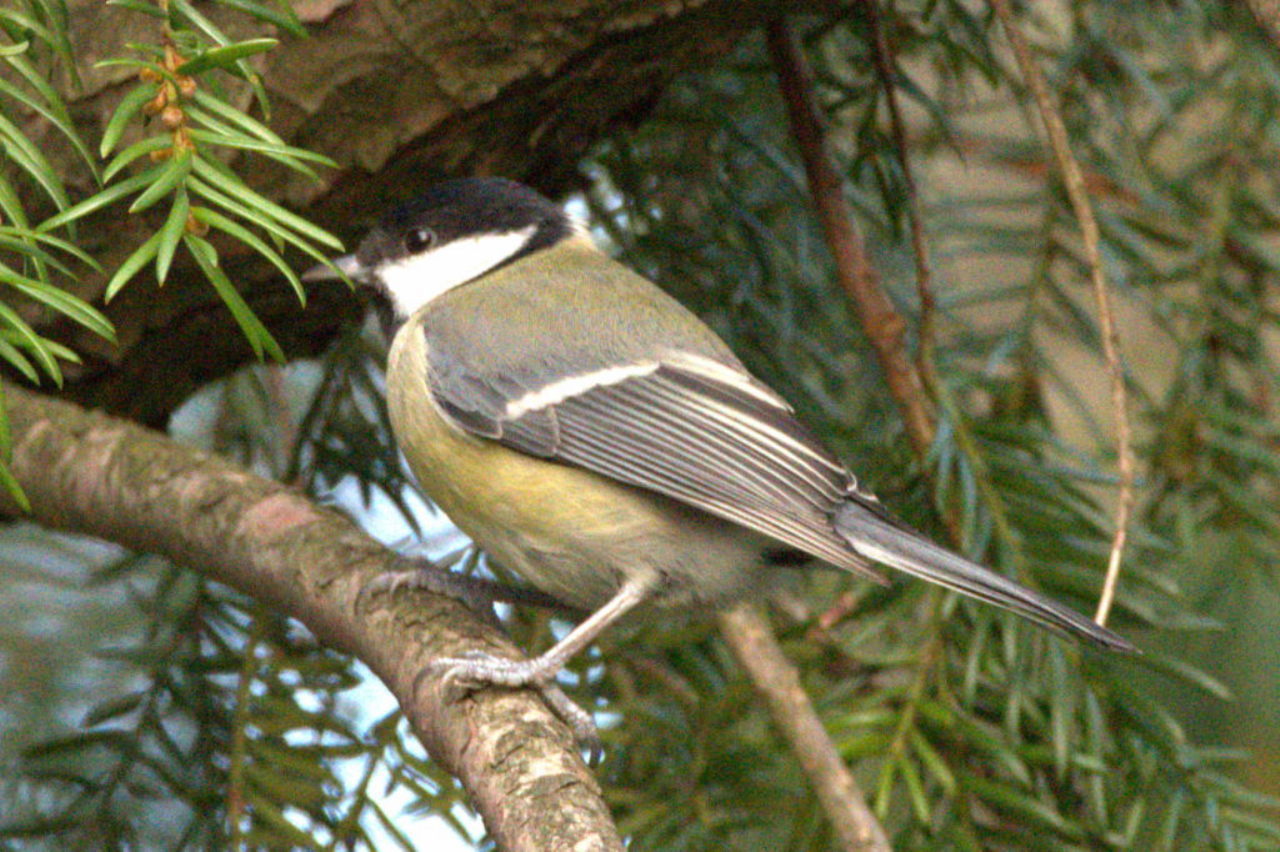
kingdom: Animalia
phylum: Chordata
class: Aves
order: Passeriformes
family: Paridae
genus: Parus
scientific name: Parus major
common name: Great tit
